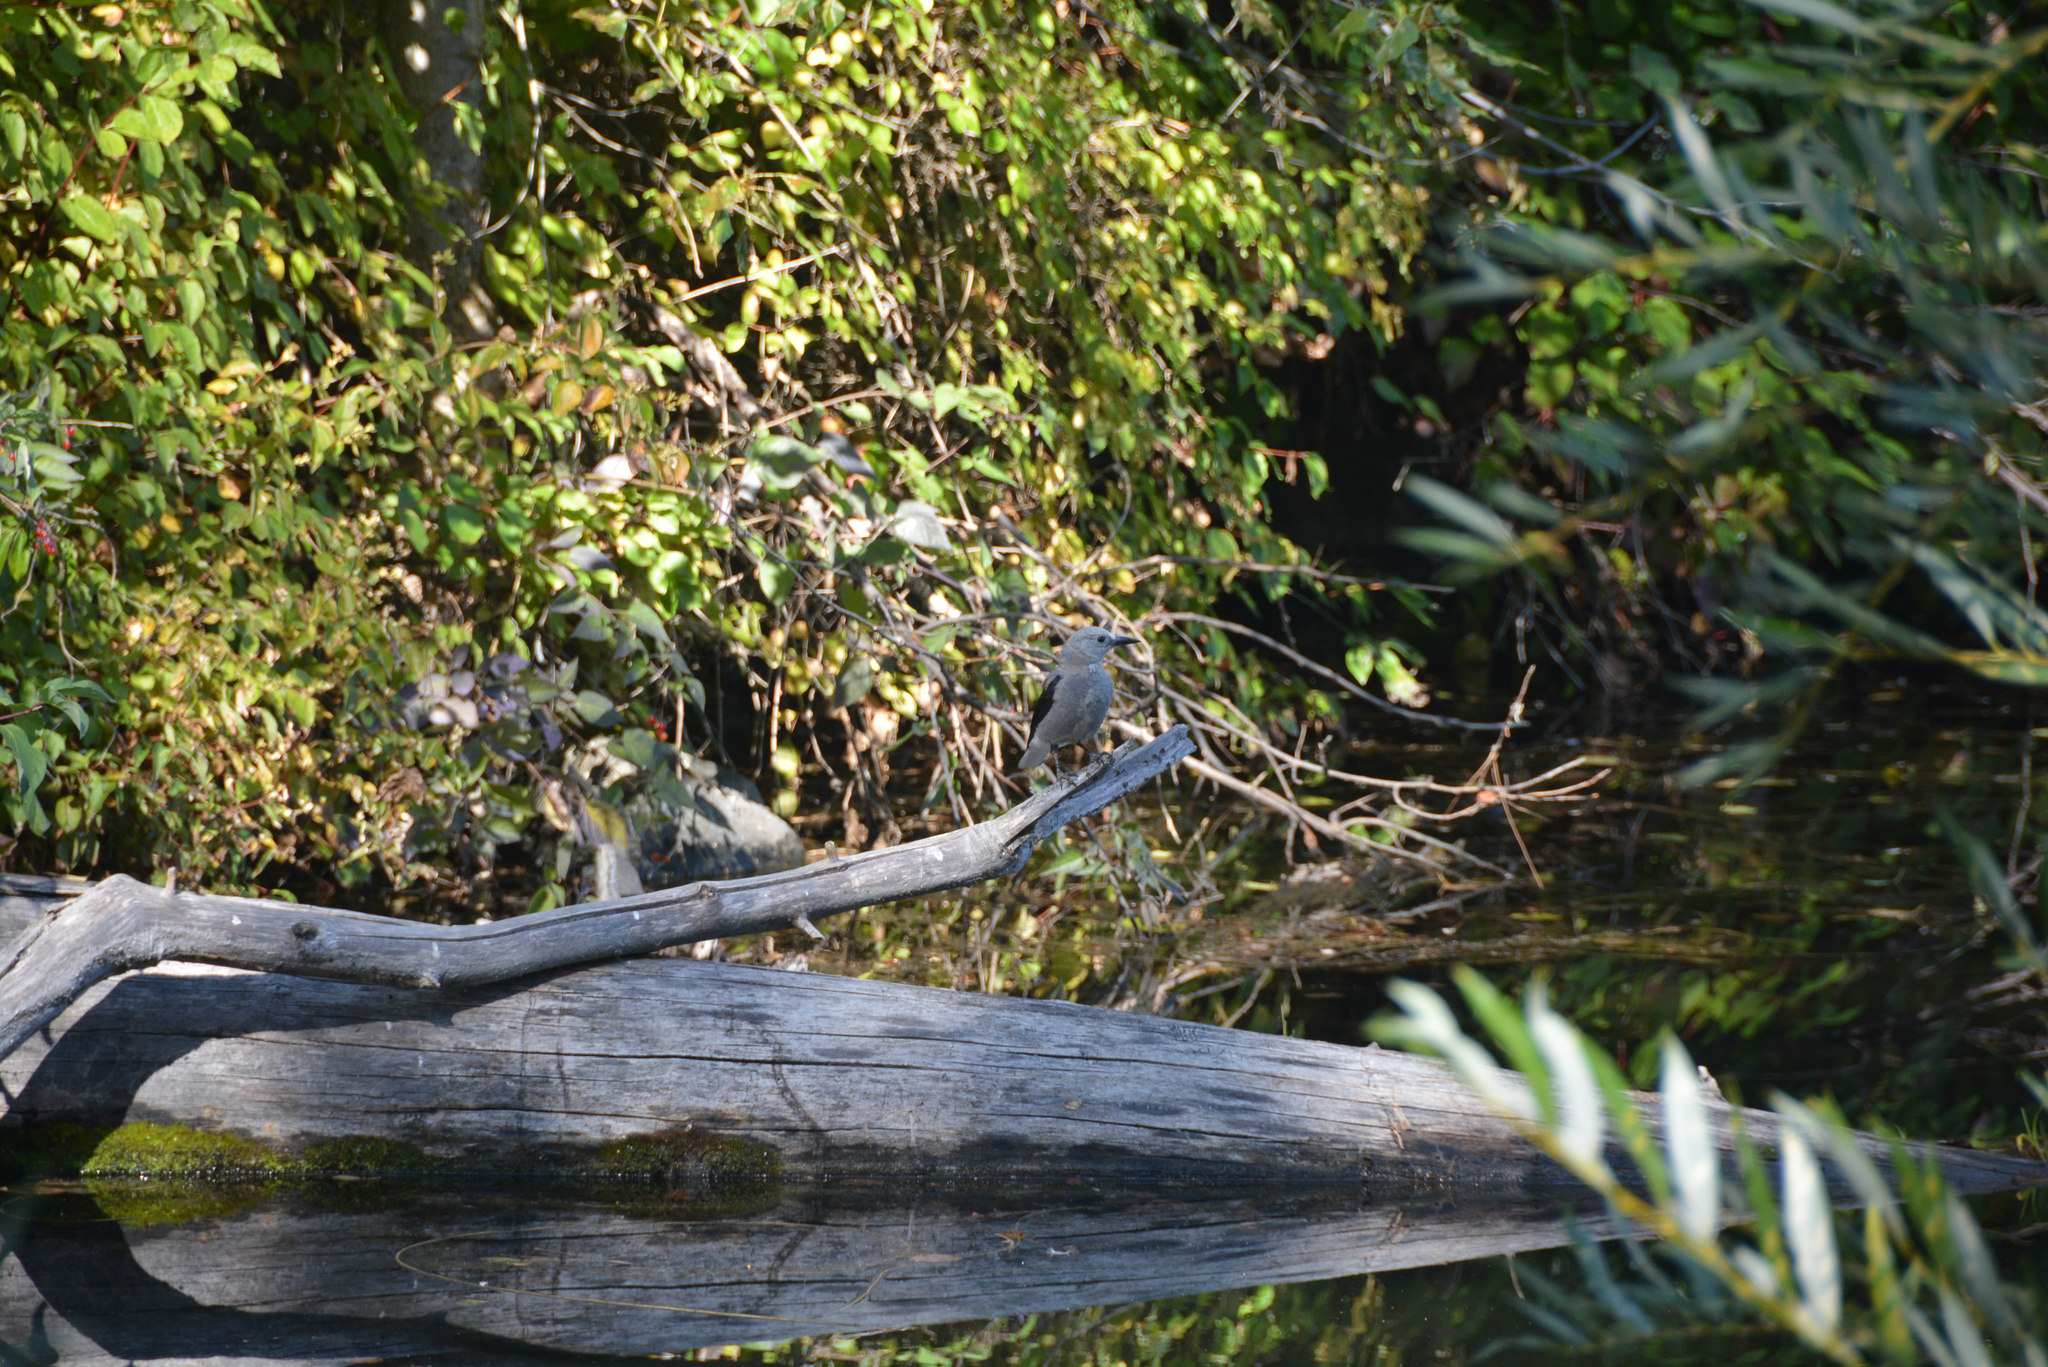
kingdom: Animalia
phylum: Chordata
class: Aves
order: Passeriformes
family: Corvidae
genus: Nucifraga
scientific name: Nucifraga columbiana
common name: Clark's nutcracker
